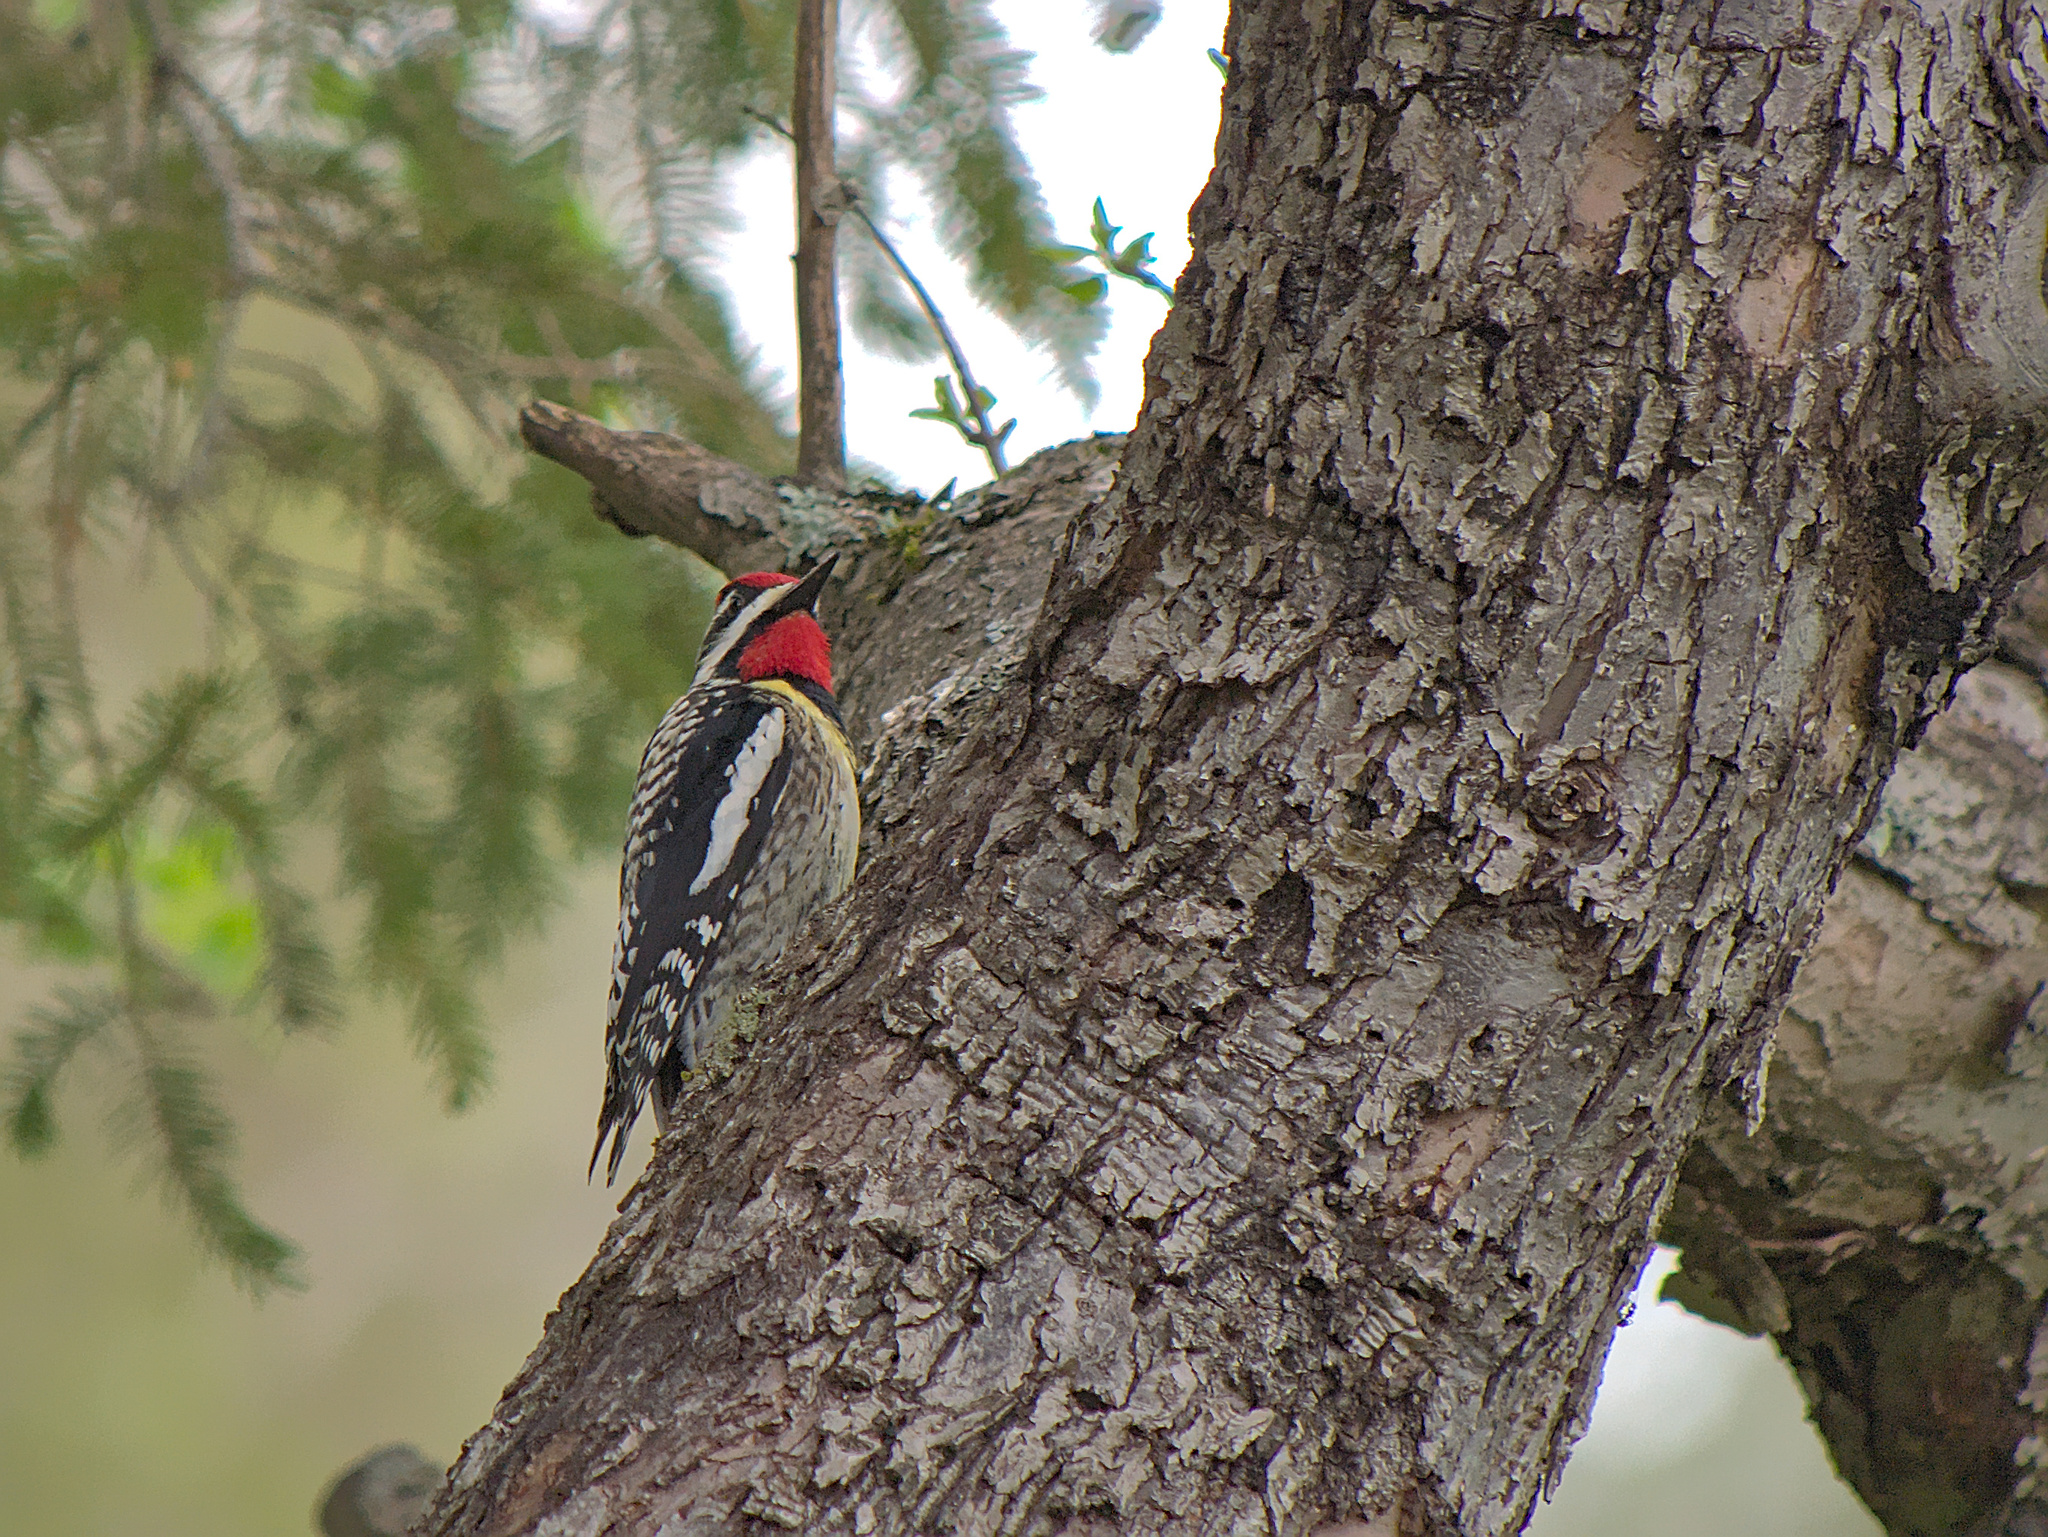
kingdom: Animalia
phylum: Chordata
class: Aves
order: Piciformes
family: Picidae
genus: Sphyrapicus
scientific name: Sphyrapicus varius
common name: Yellow-bellied sapsucker
